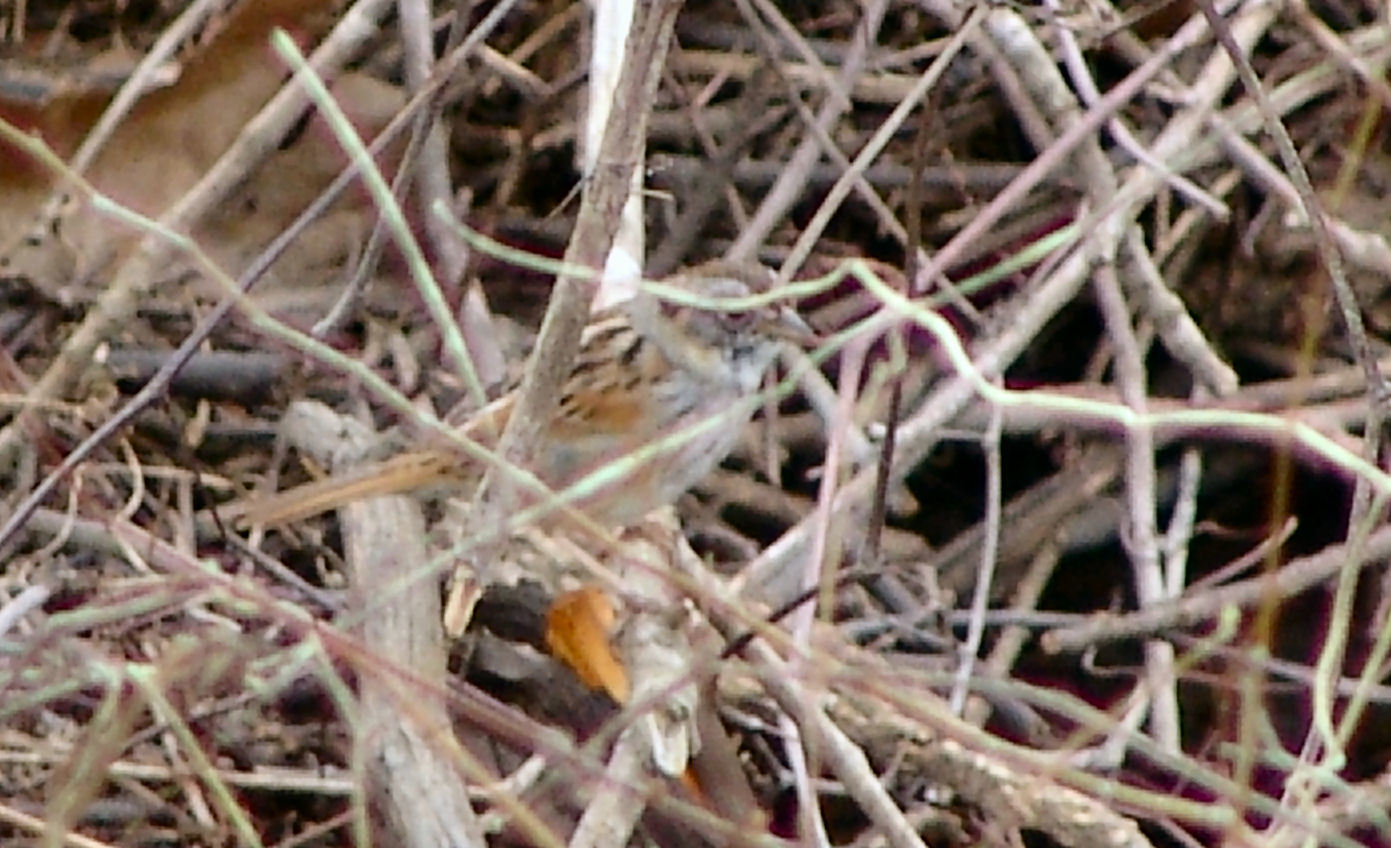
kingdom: Animalia
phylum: Chordata
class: Aves
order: Passeriformes
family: Passerellidae
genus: Melospiza
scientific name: Melospiza georgiana
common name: Swamp sparrow
